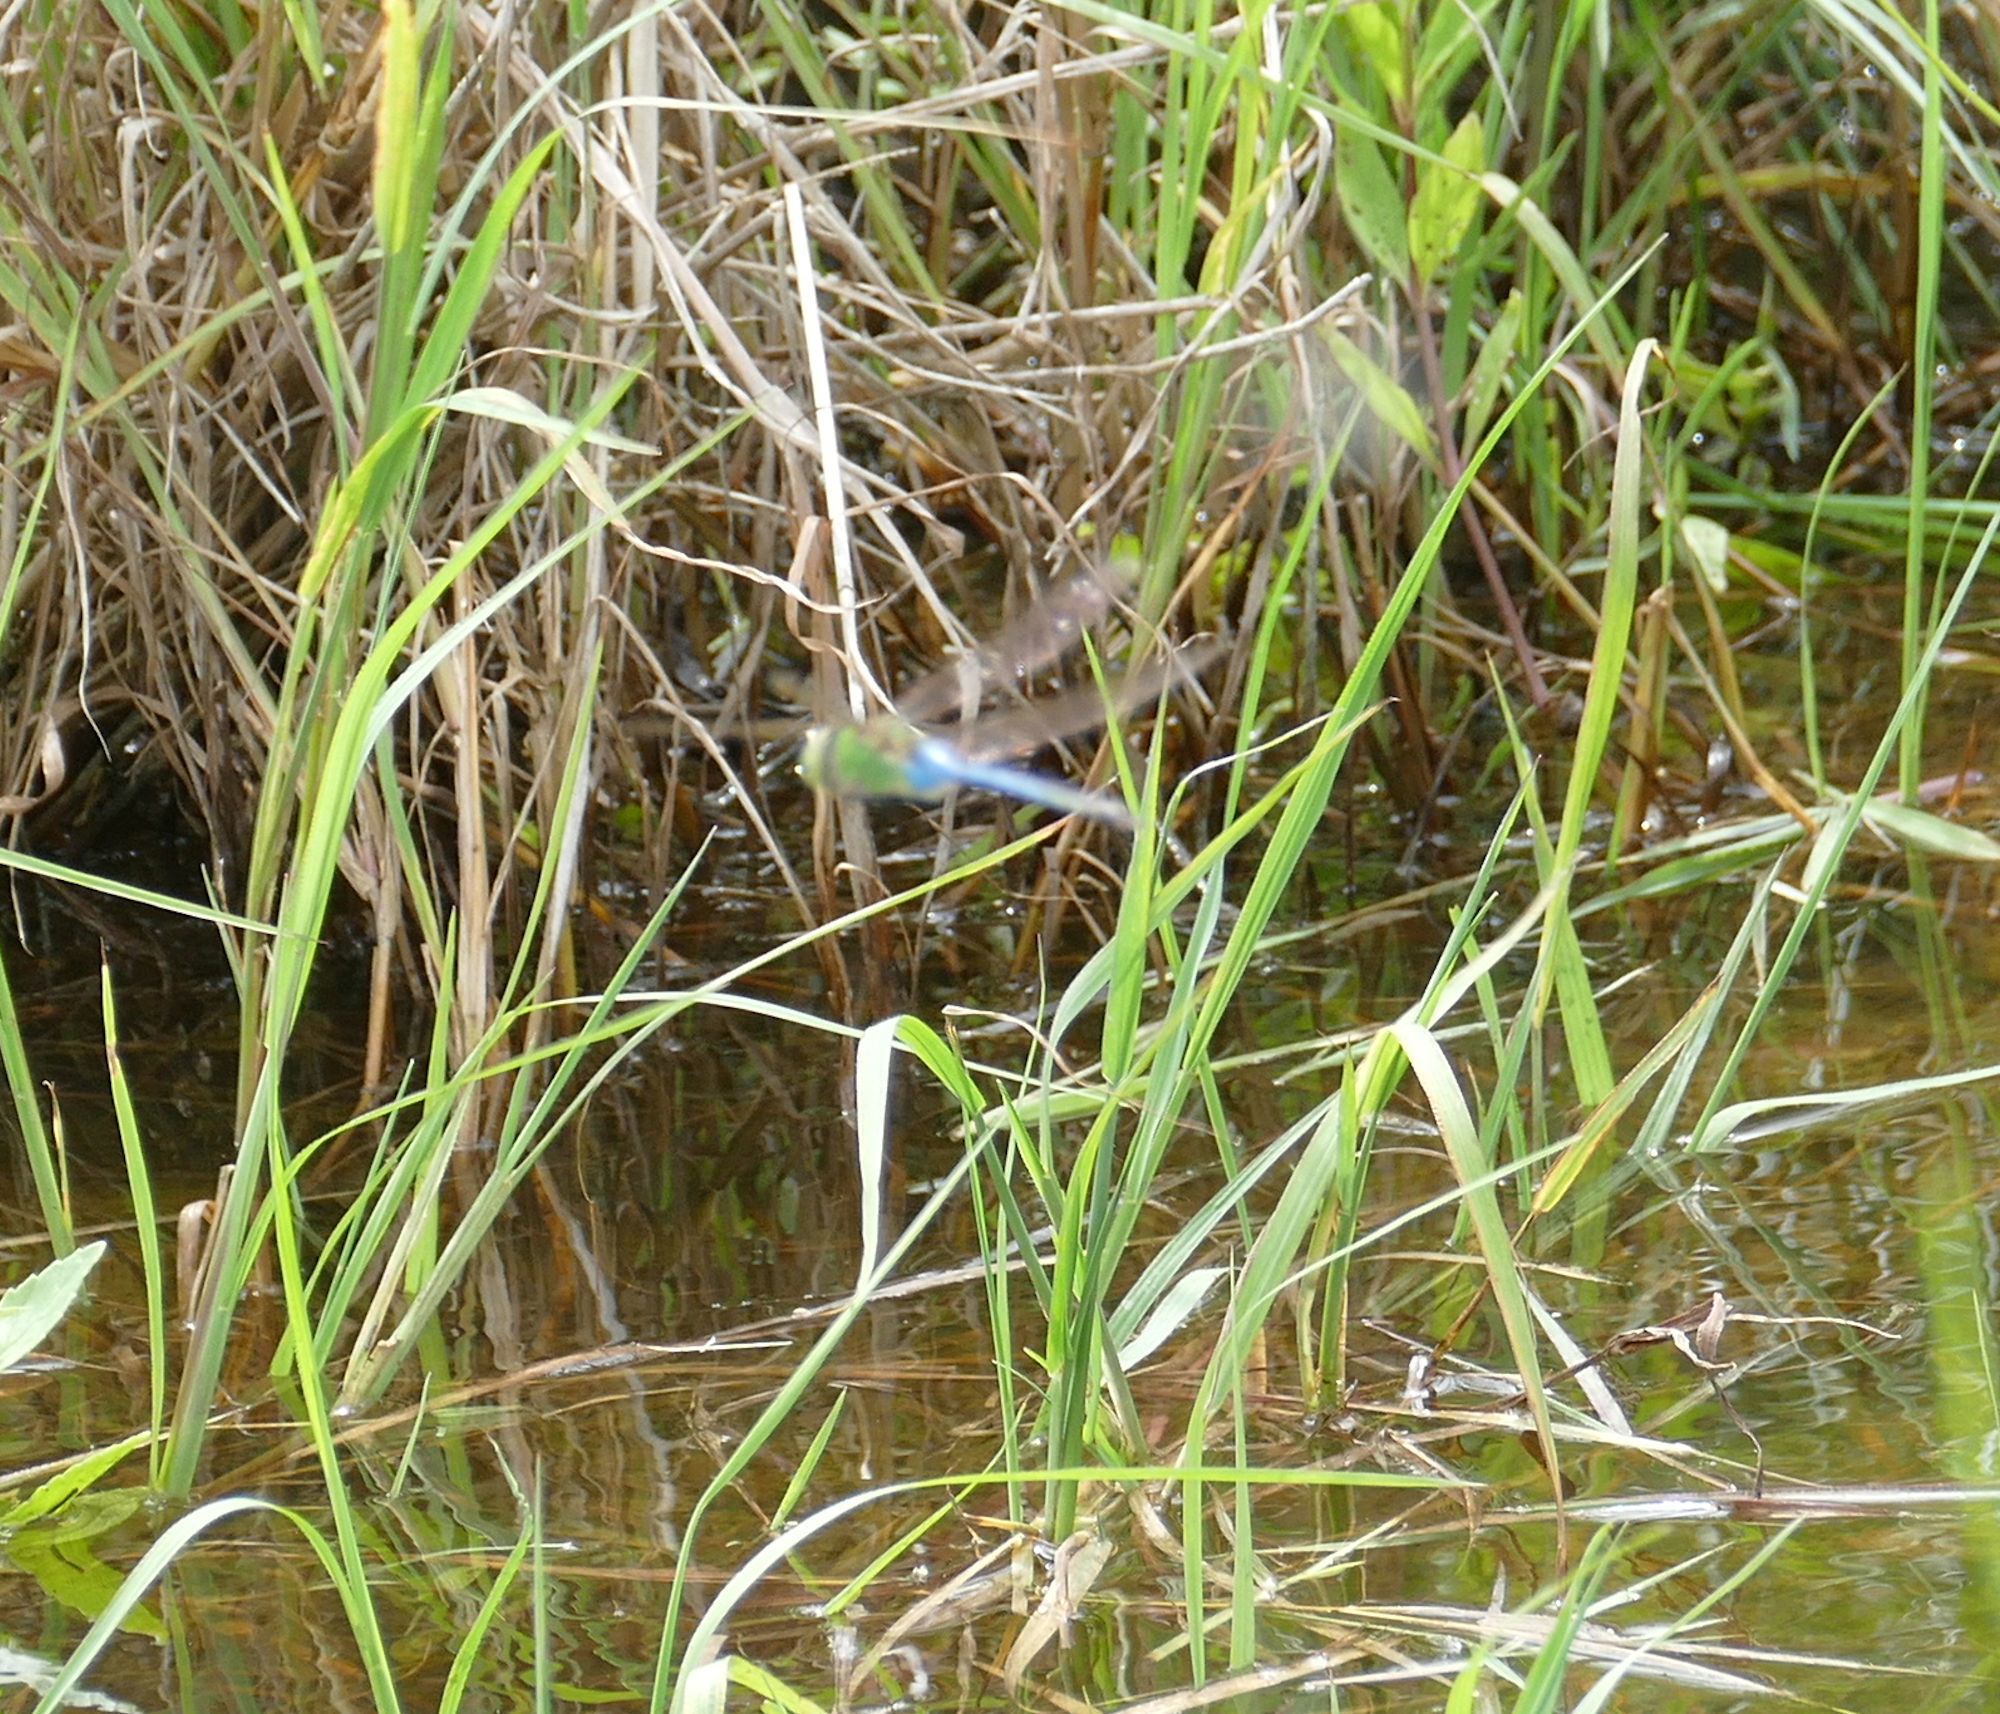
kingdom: Animalia
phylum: Arthropoda
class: Insecta
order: Odonata
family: Aeshnidae
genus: Anax
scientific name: Anax junius
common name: Common green darner
